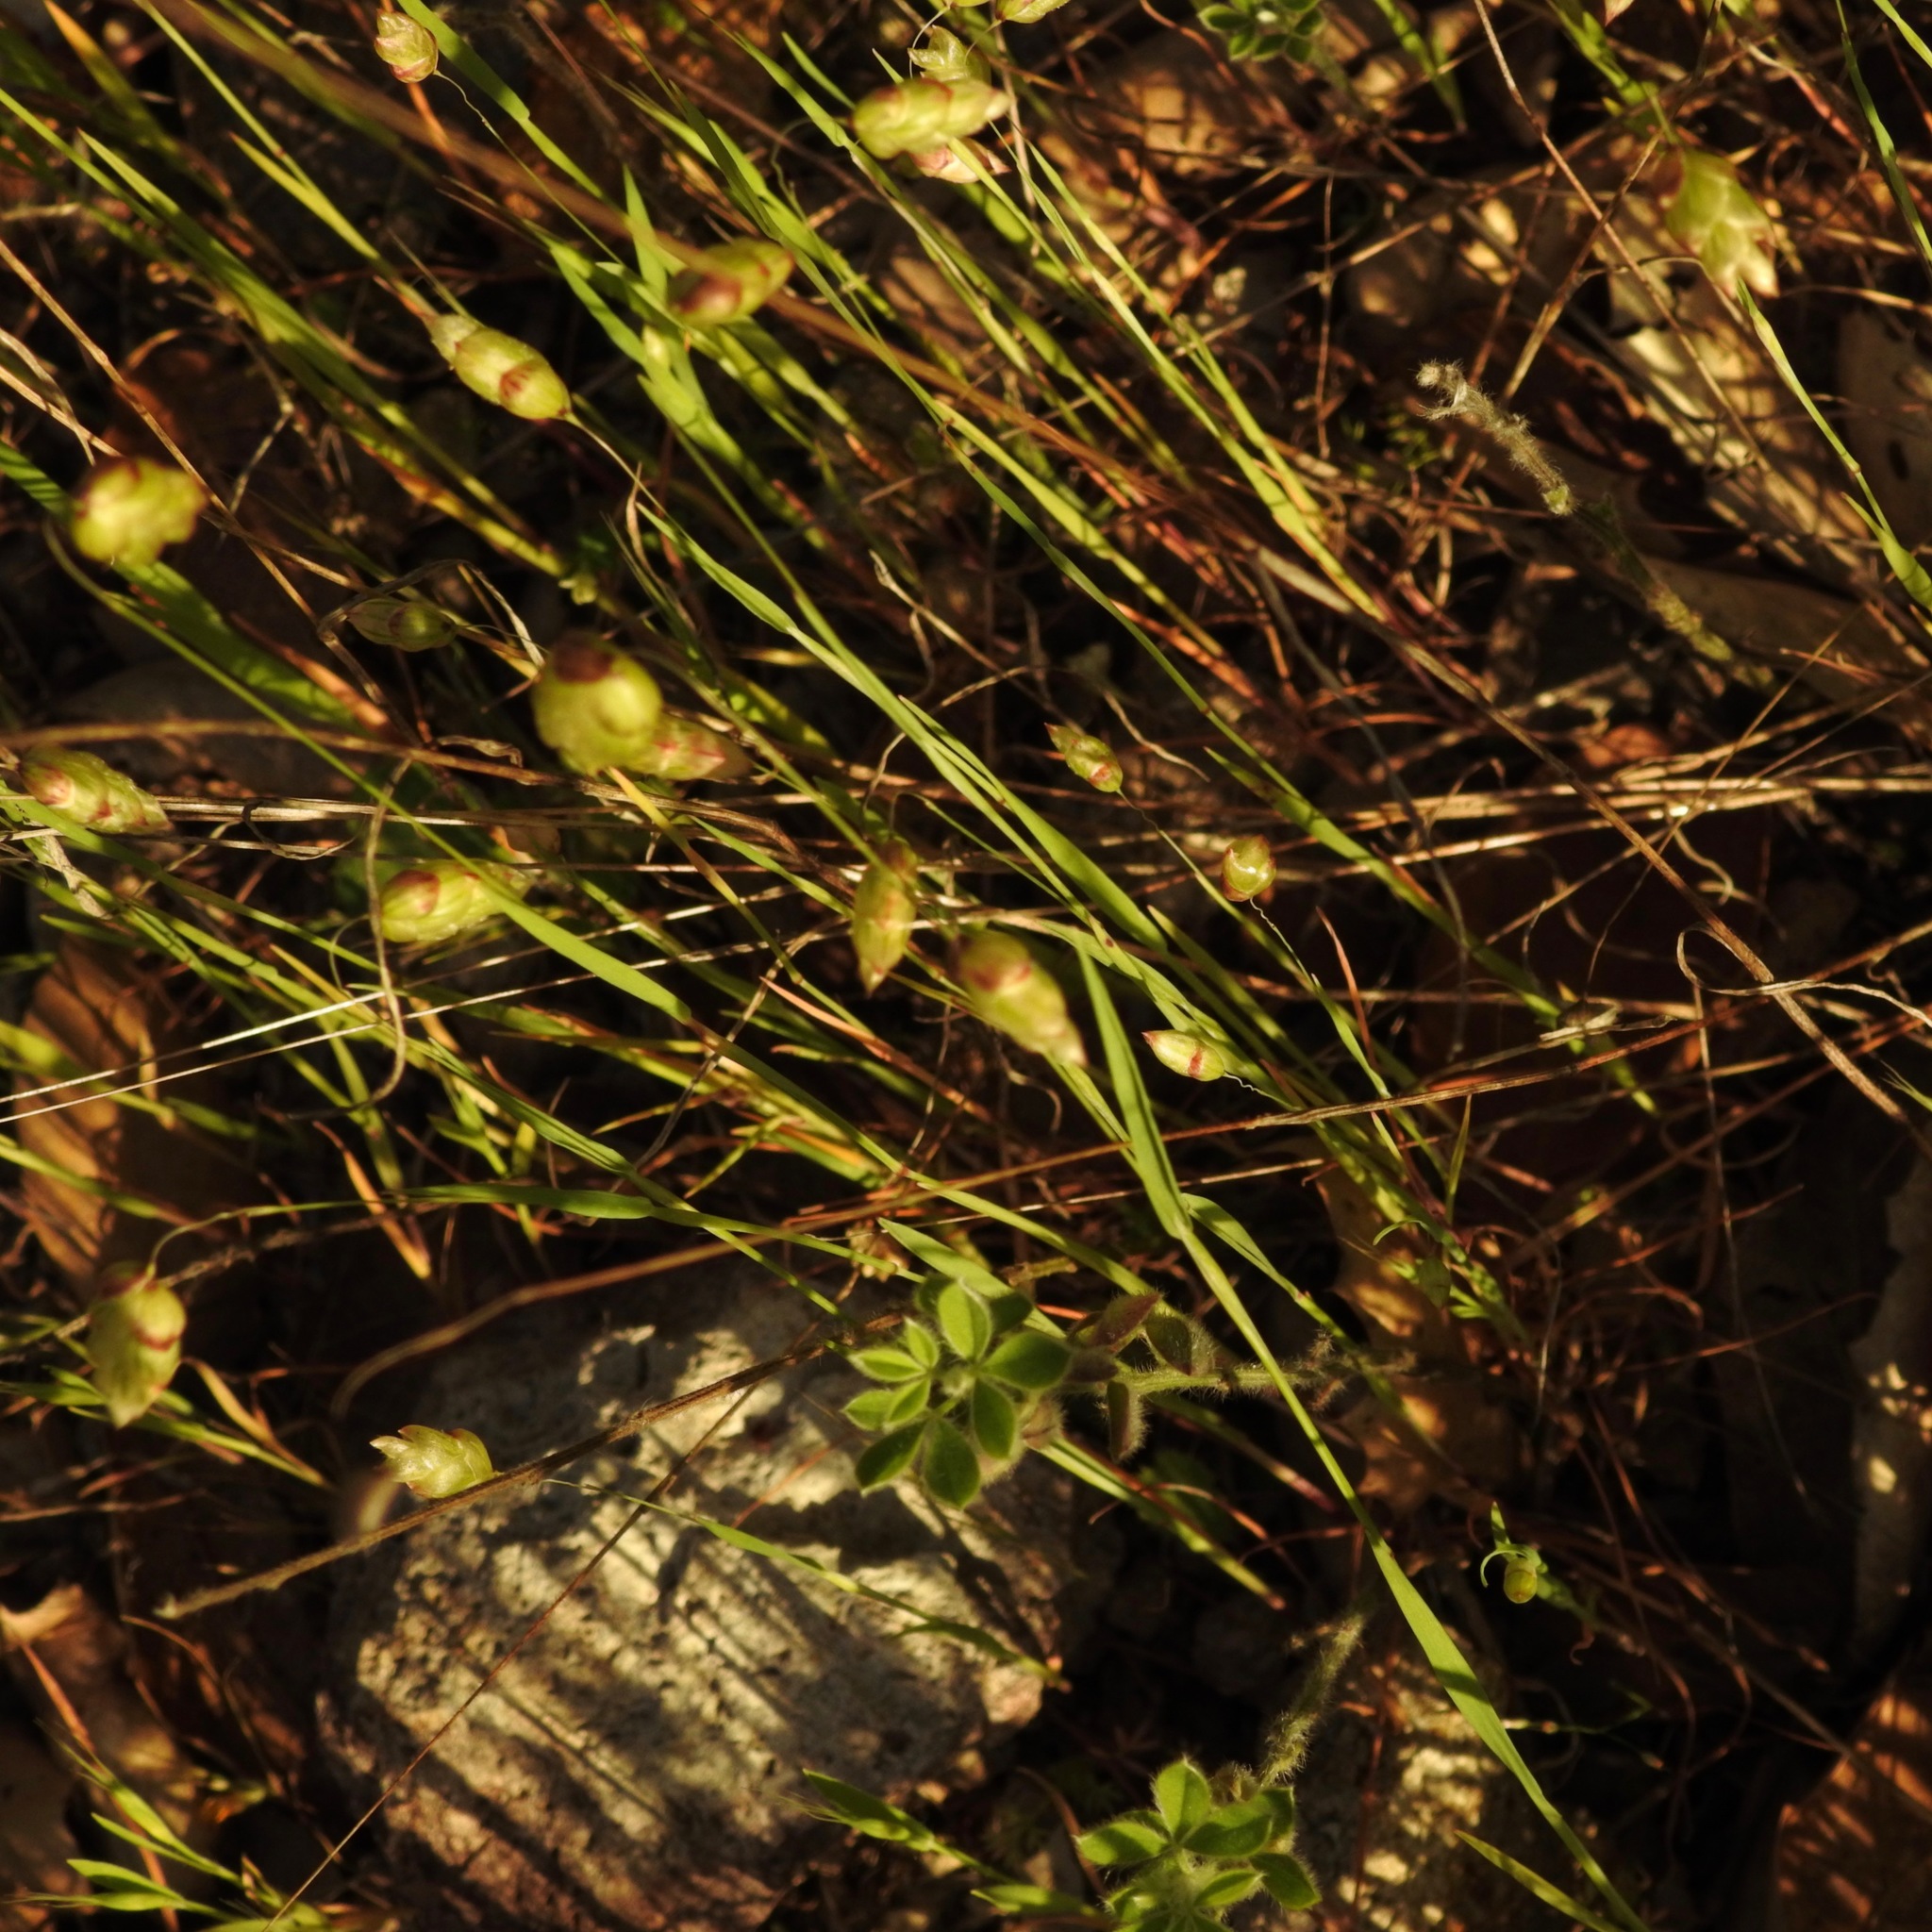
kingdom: Plantae
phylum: Tracheophyta
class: Liliopsida
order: Poales
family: Poaceae
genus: Briza
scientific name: Briza maxima
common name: Big quakinggrass
